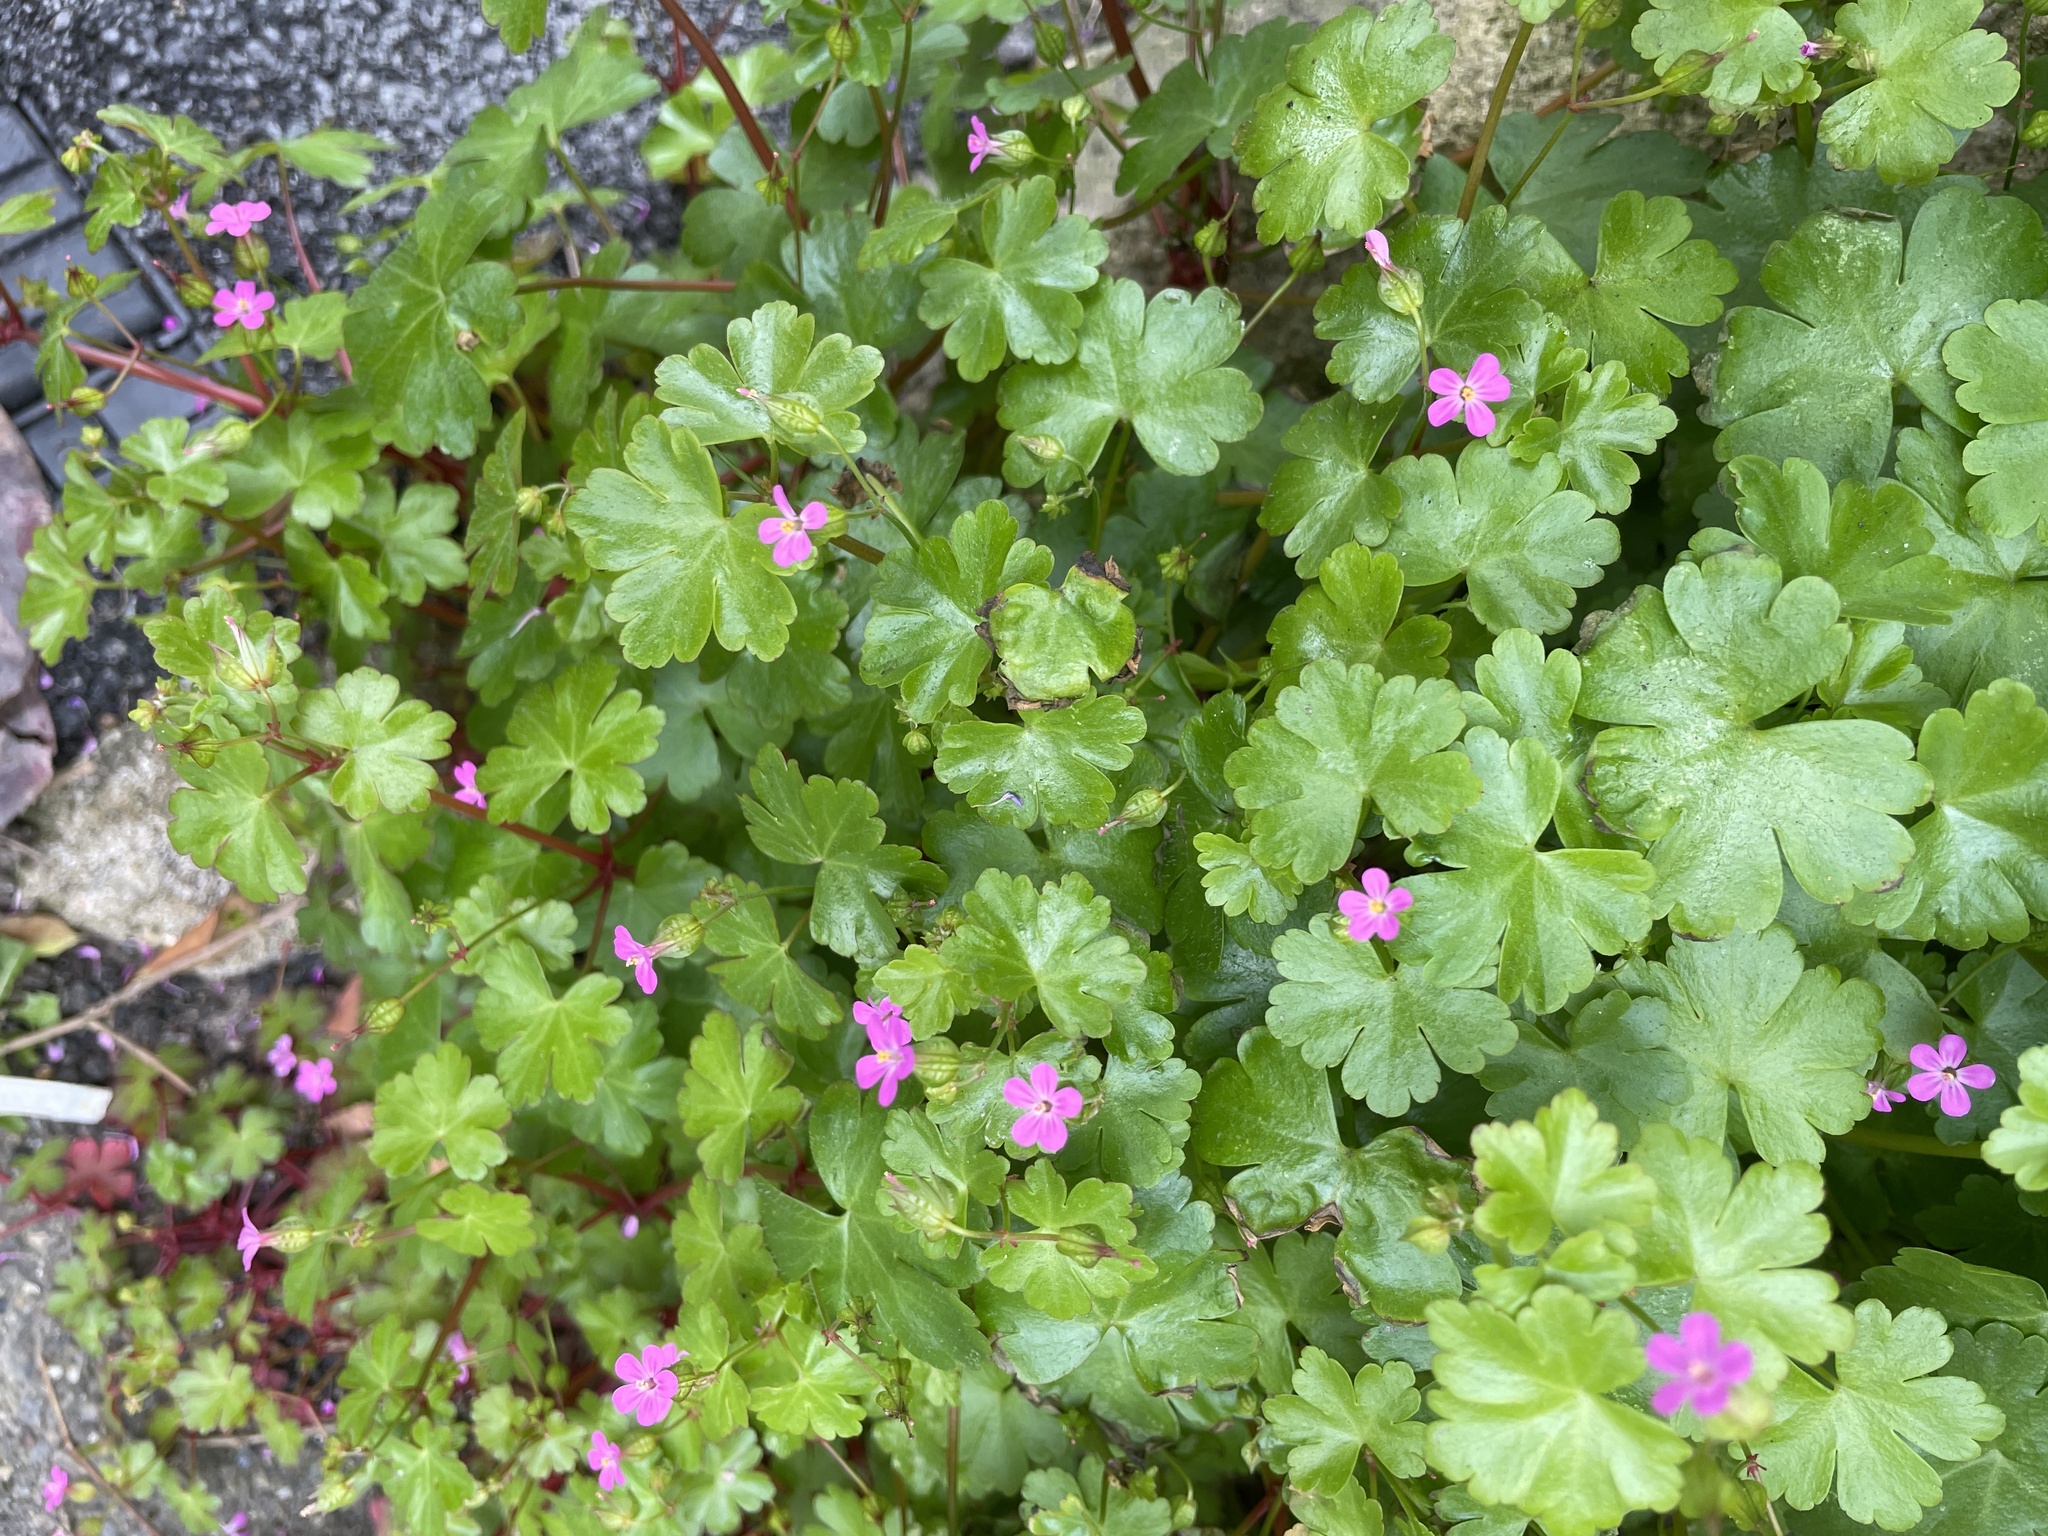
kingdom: Plantae
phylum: Tracheophyta
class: Magnoliopsida
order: Geraniales
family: Geraniaceae
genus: Geranium
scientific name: Geranium lucidum
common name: Shining crane's-bill
